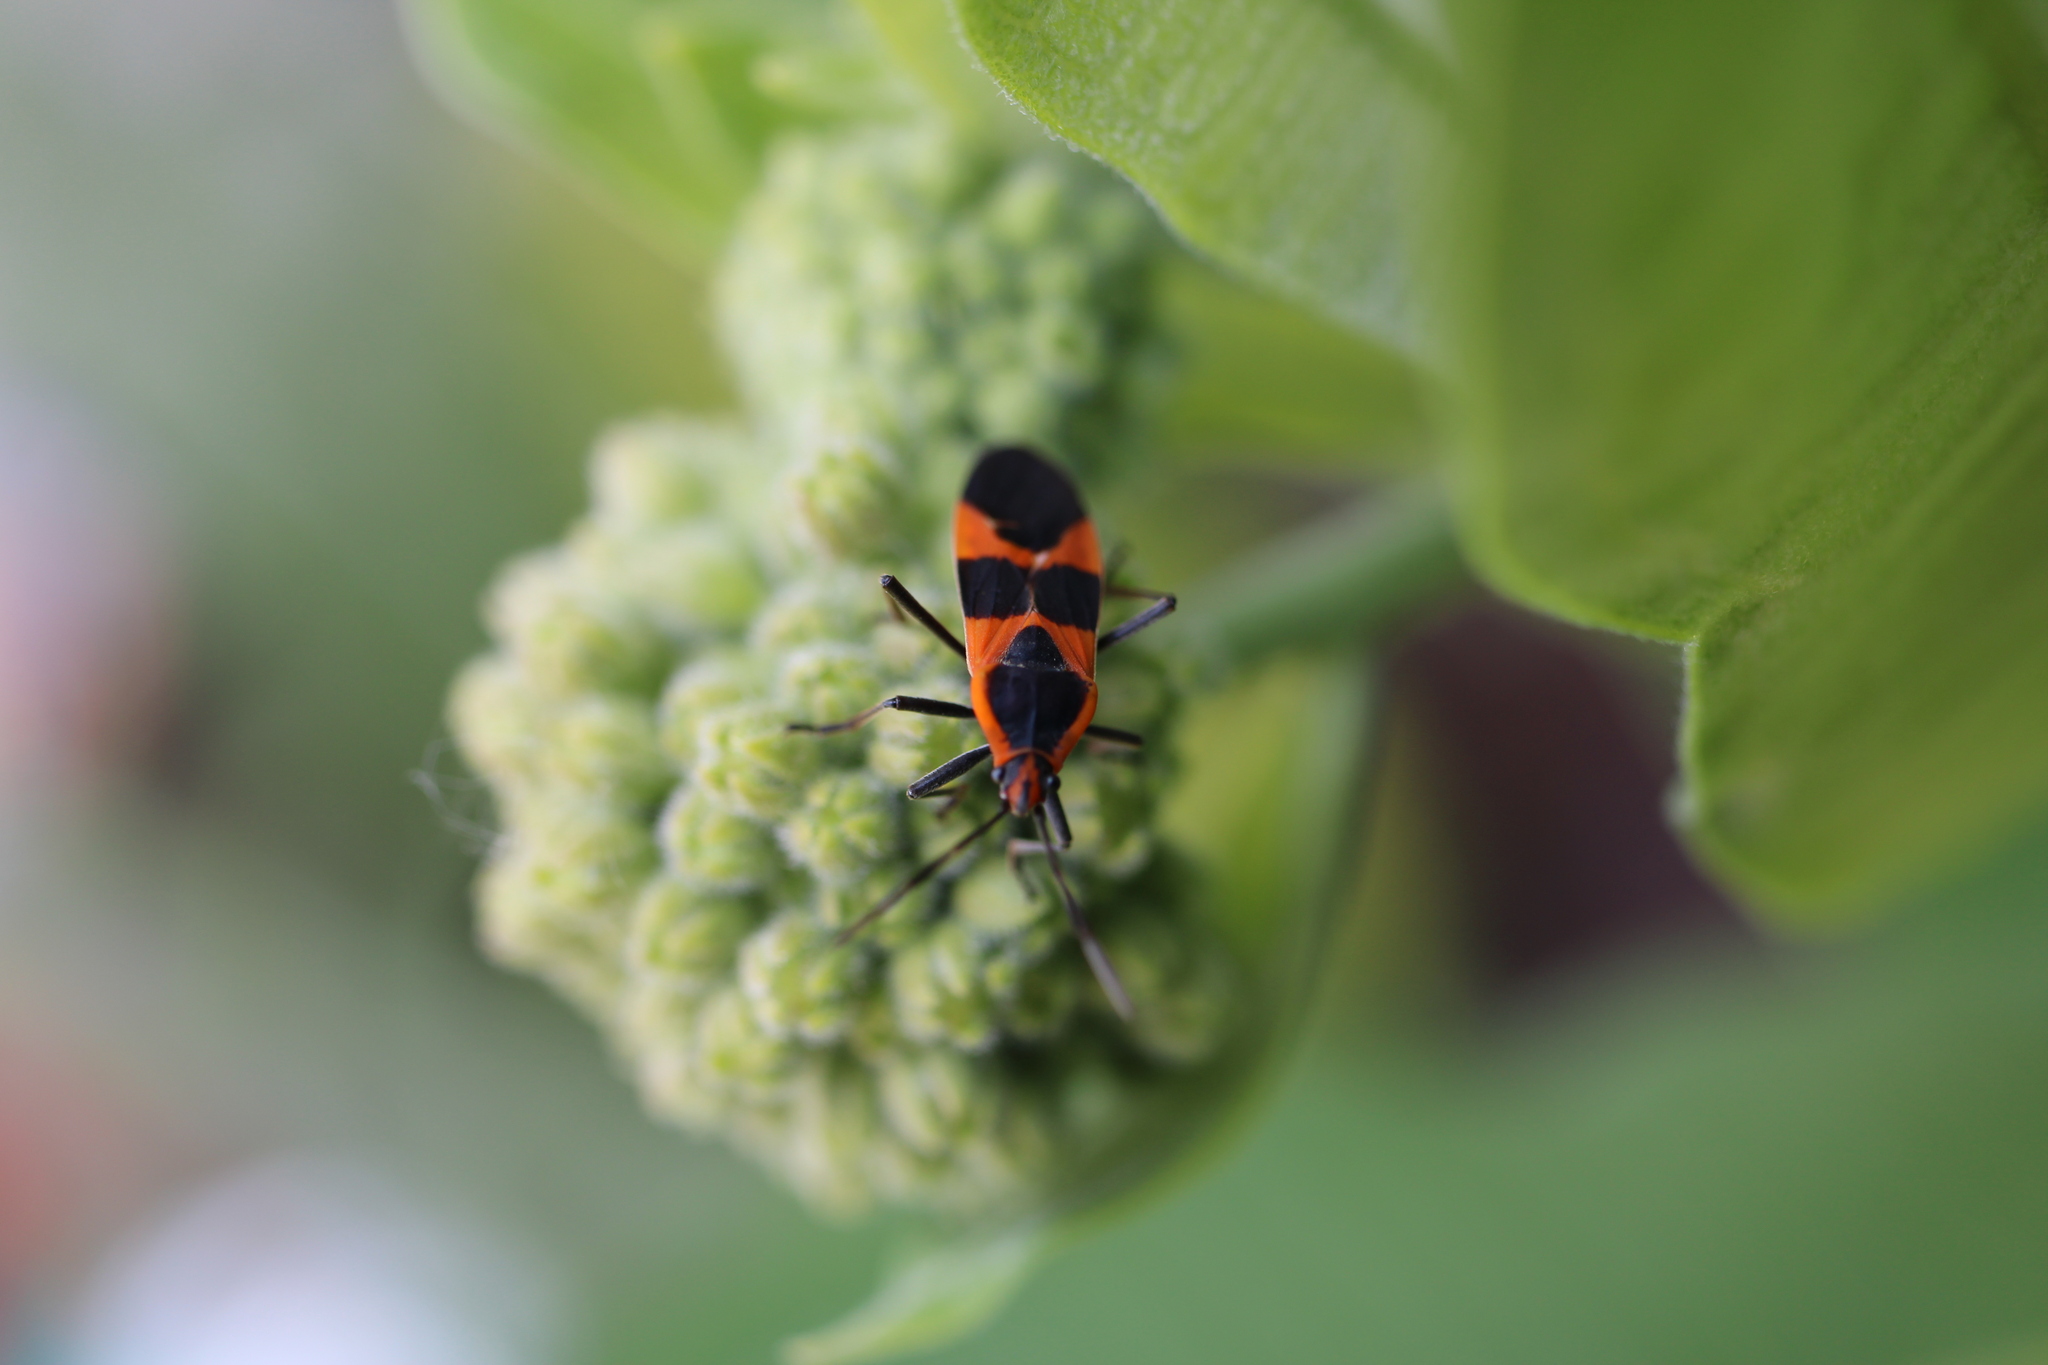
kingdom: Animalia
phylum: Arthropoda
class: Insecta
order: Hemiptera
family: Lygaeidae
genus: Oncopeltus
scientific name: Oncopeltus fasciatus
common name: Large milkweed bug
